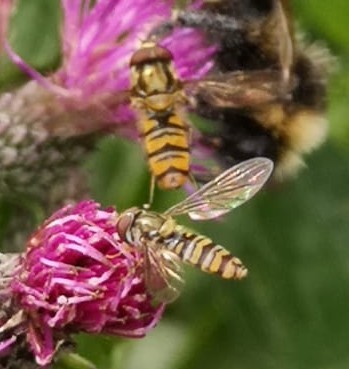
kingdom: Animalia
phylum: Arthropoda
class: Insecta
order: Diptera
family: Syrphidae
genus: Episyrphus
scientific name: Episyrphus balteatus
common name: Marmalade hoverfly
